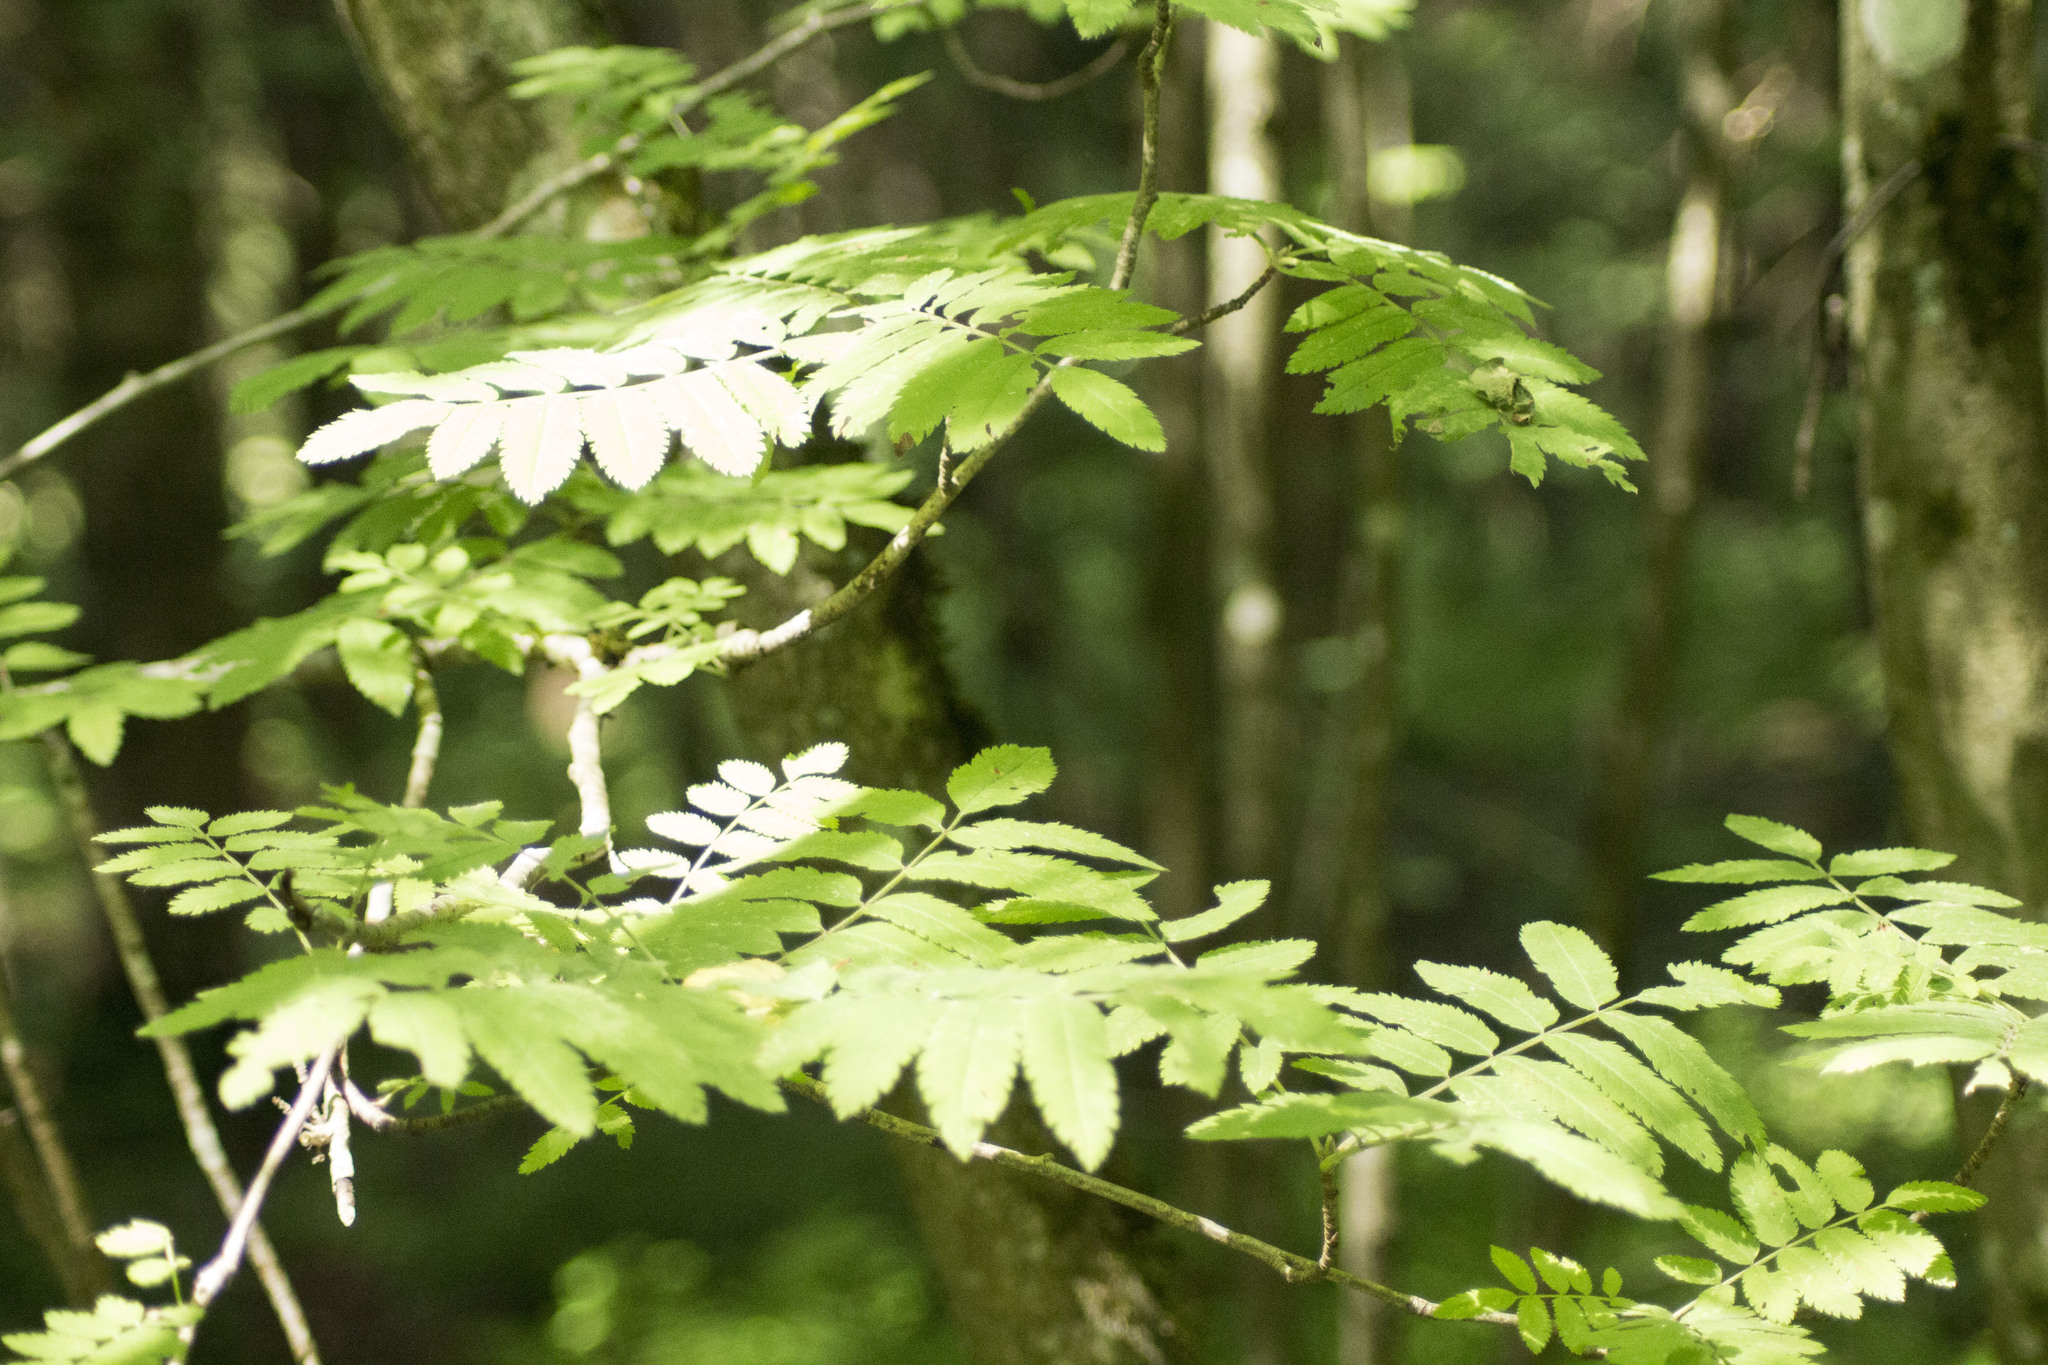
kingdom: Plantae
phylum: Tracheophyta
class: Magnoliopsida
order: Rosales
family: Rosaceae
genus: Sorbus
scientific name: Sorbus aucuparia
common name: Rowan
